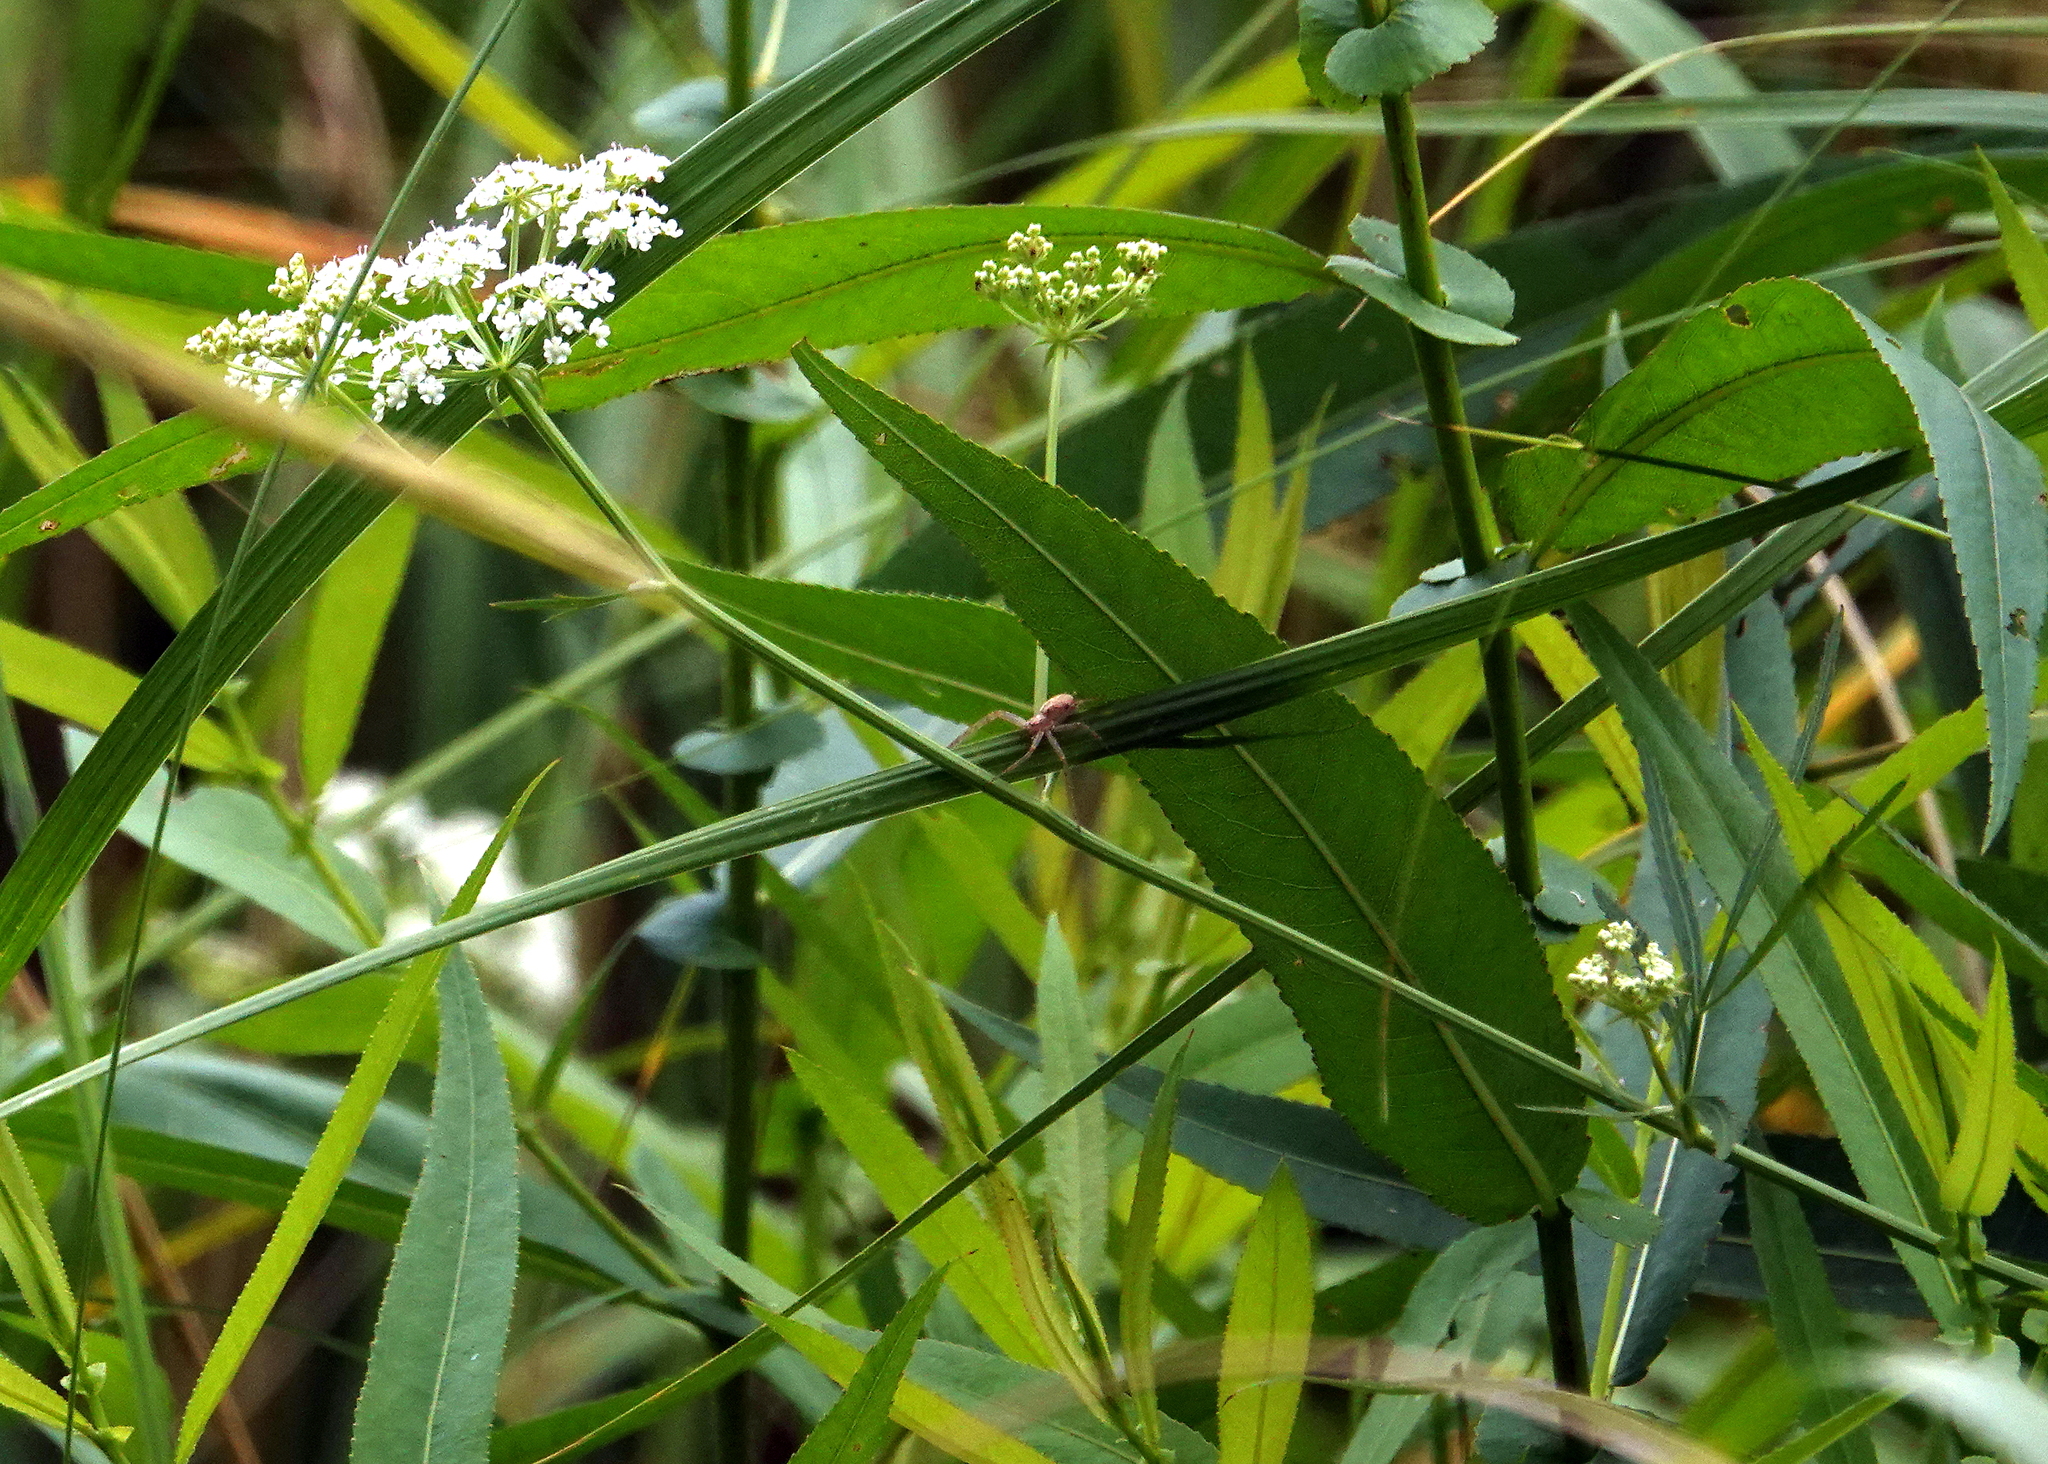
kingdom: Plantae
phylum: Tracheophyta
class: Magnoliopsida
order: Apiales
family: Apiaceae
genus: Cicuta
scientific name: Cicuta bulbifera
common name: Bulb-bearing water-hemlock
